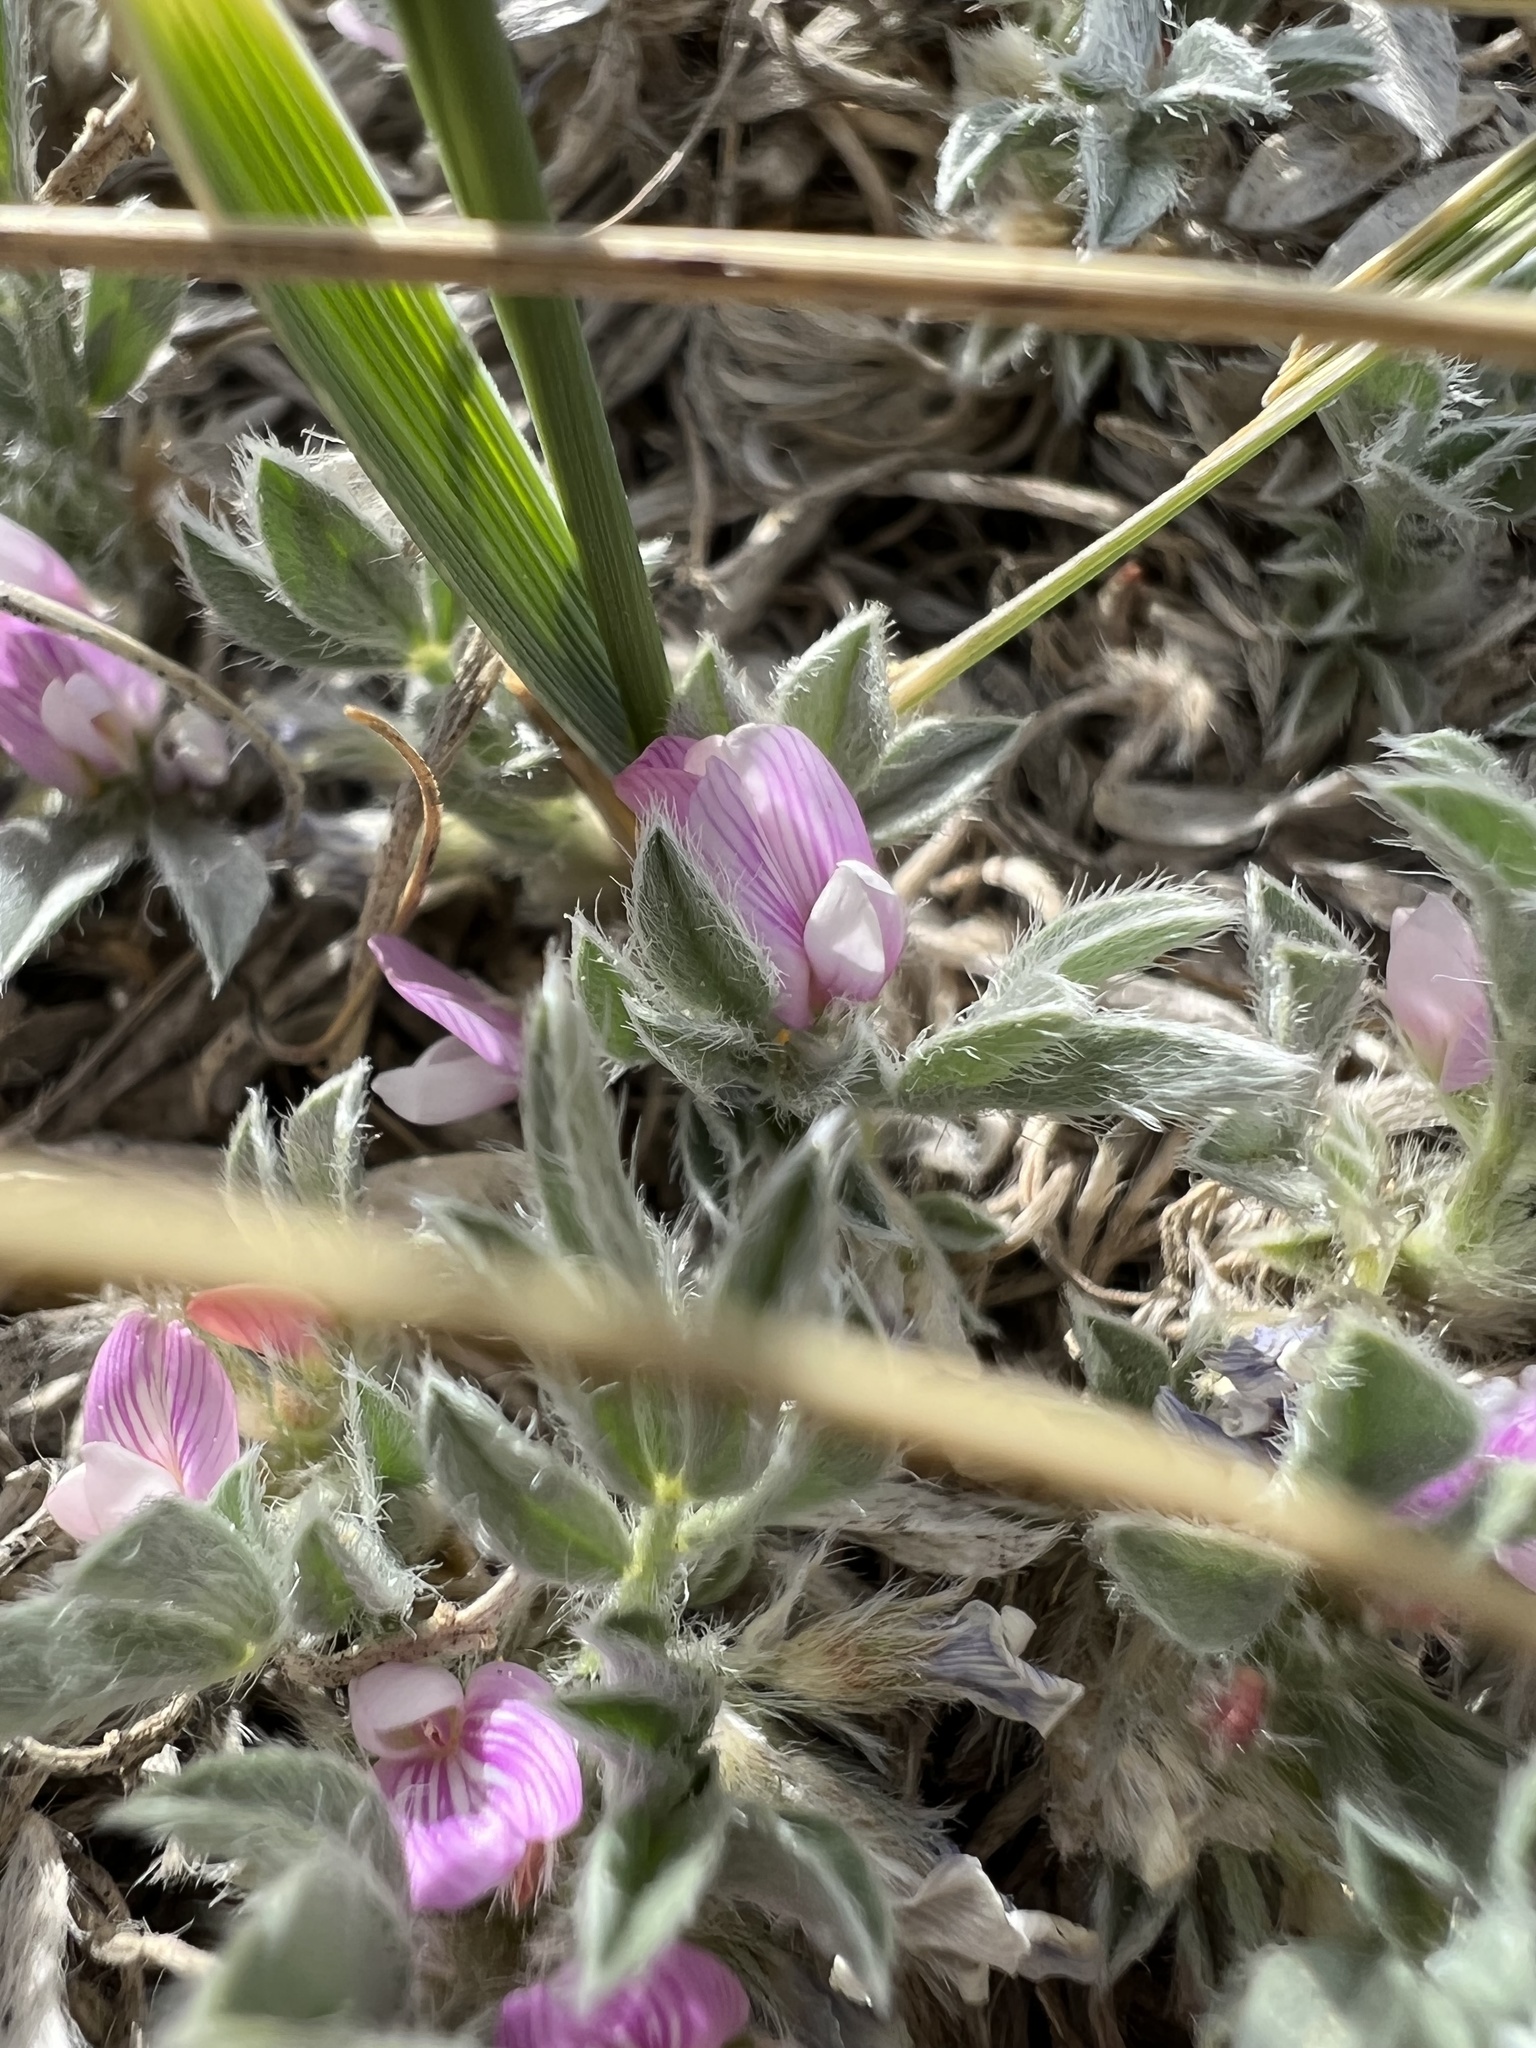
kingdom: Plantae
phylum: Tracheophyta
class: Magnoliopsida
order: Fabales
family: Fabaceae
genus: Astragalus
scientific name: Astragalus tridactylicus
